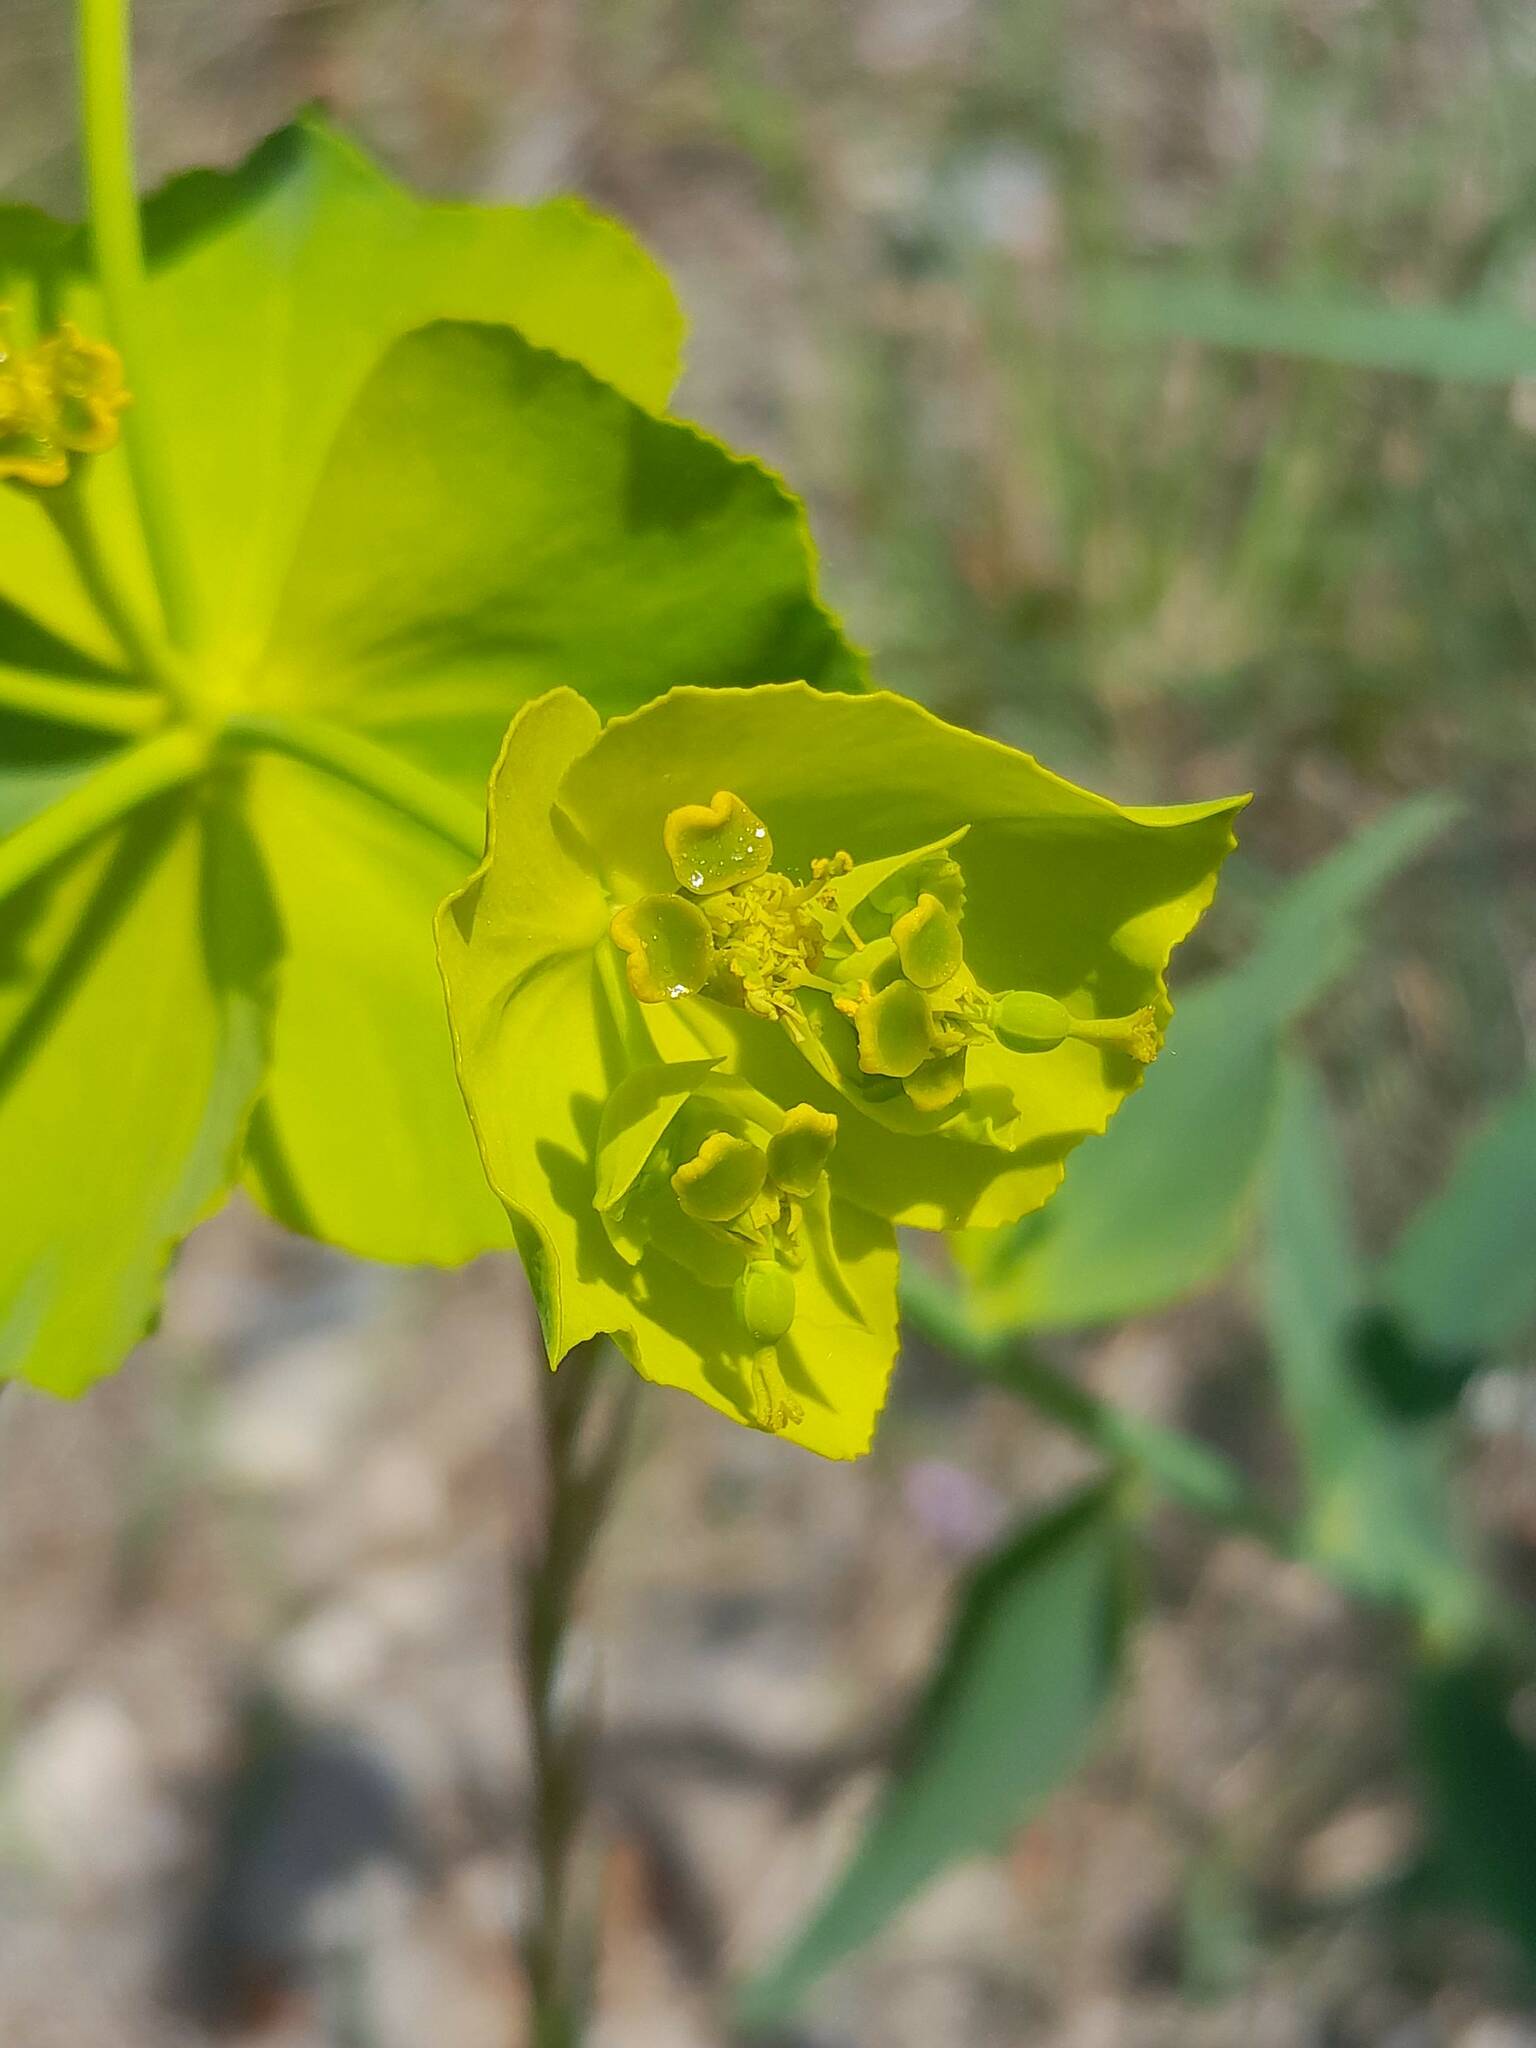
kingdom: Plantae
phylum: Tracheophyta
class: Magnoliopsida
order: Malpighiales
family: Euphorbiaceae
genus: Euphorbia
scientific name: Euphorbia serrata
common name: Serrate spurge
